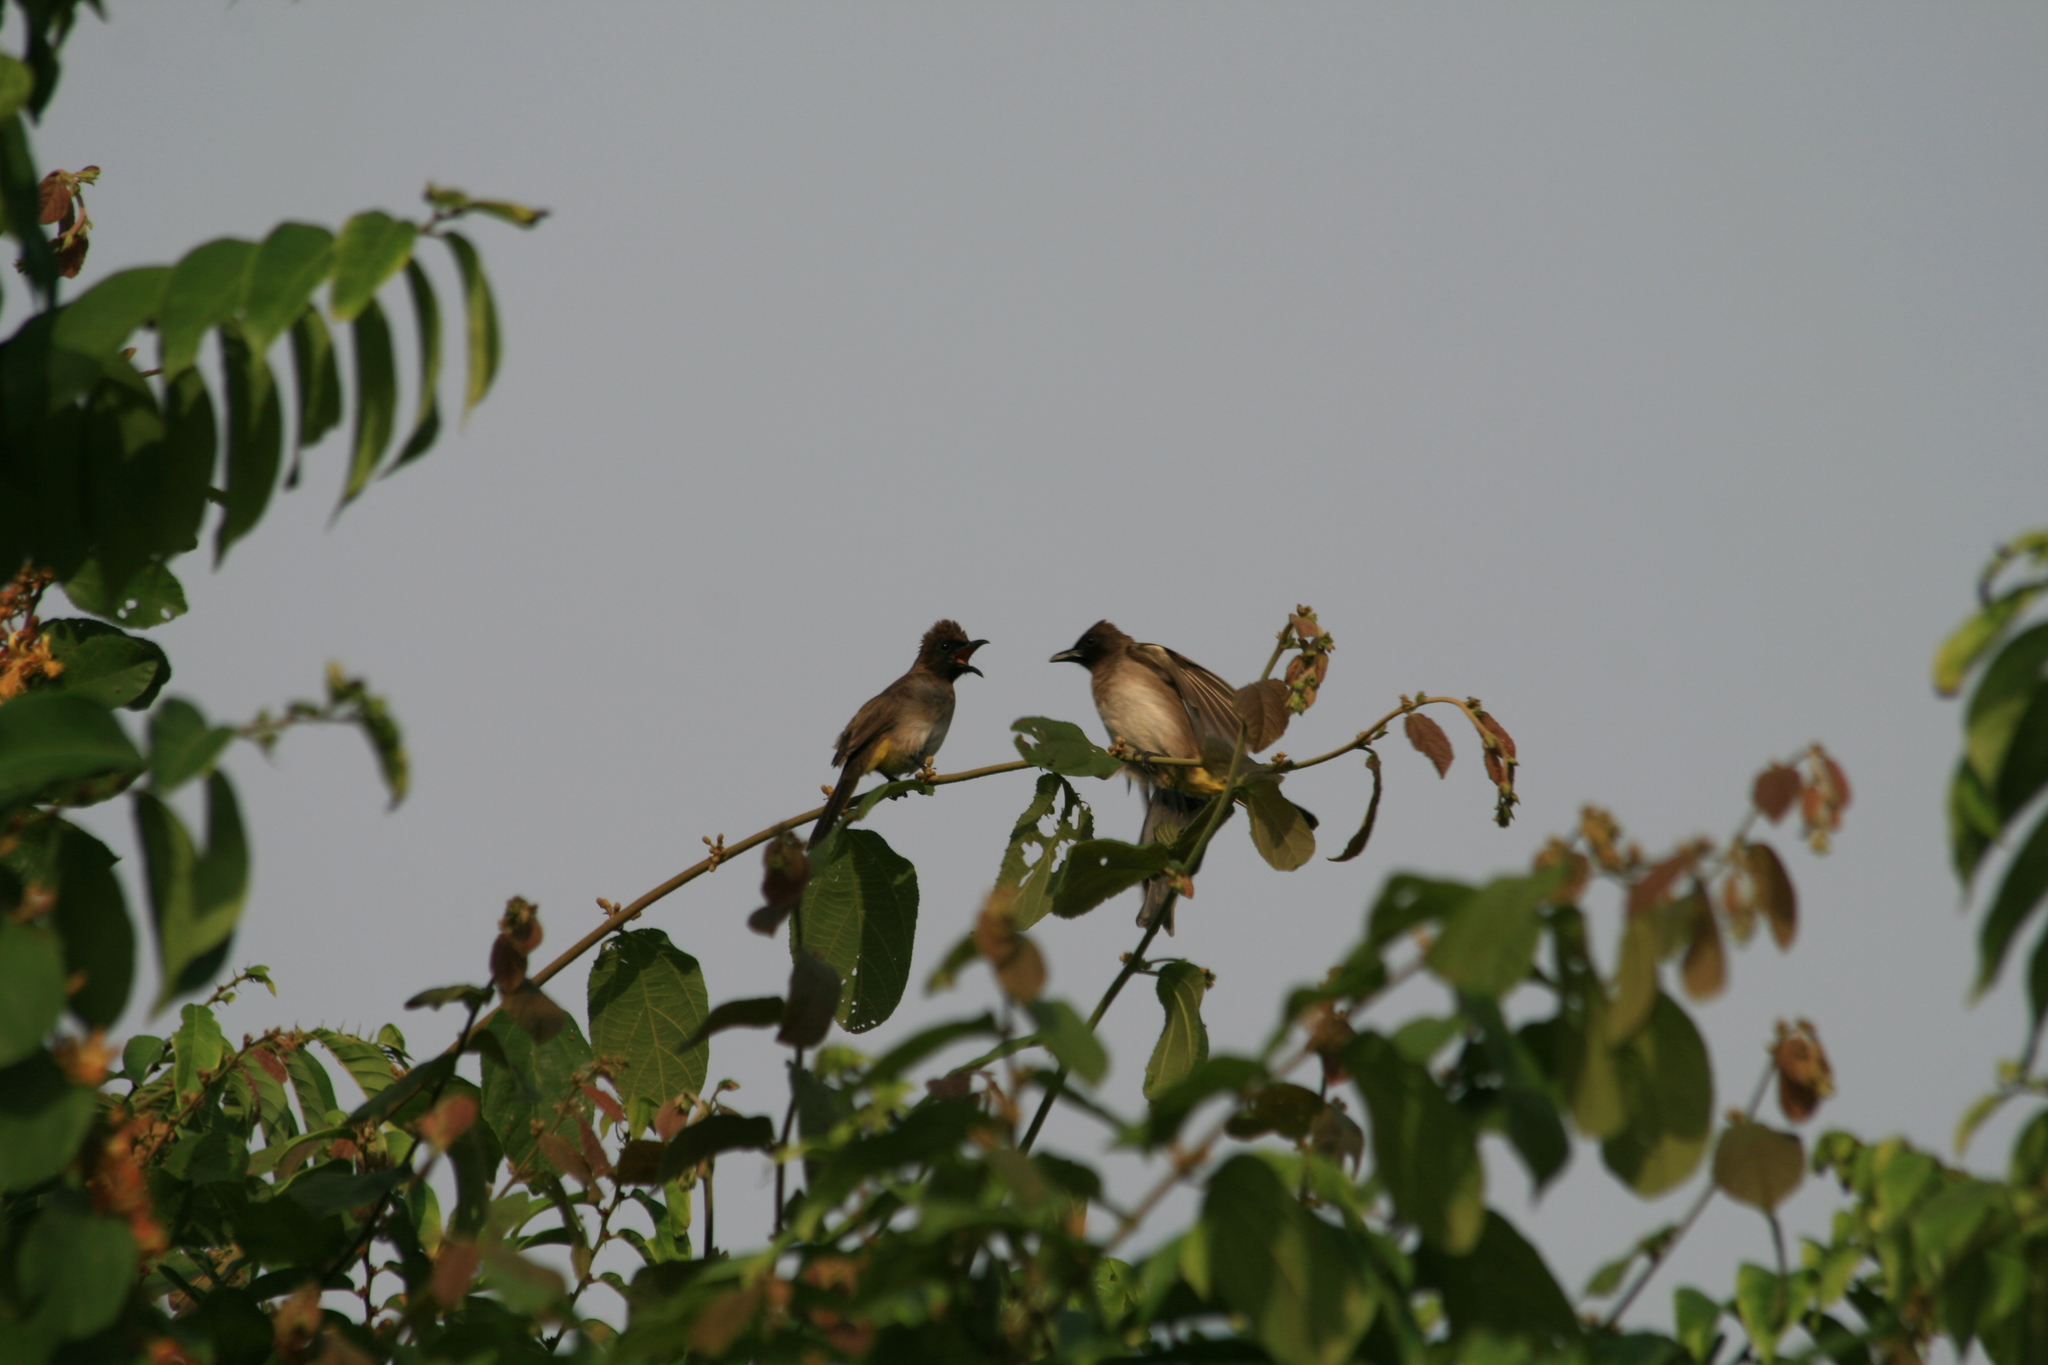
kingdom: Animalia
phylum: Chordata
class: Aves
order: Passeriformes
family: Pycnonotidae
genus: Pycnonotus
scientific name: Pycnonotus barbatus
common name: Common bulbul
